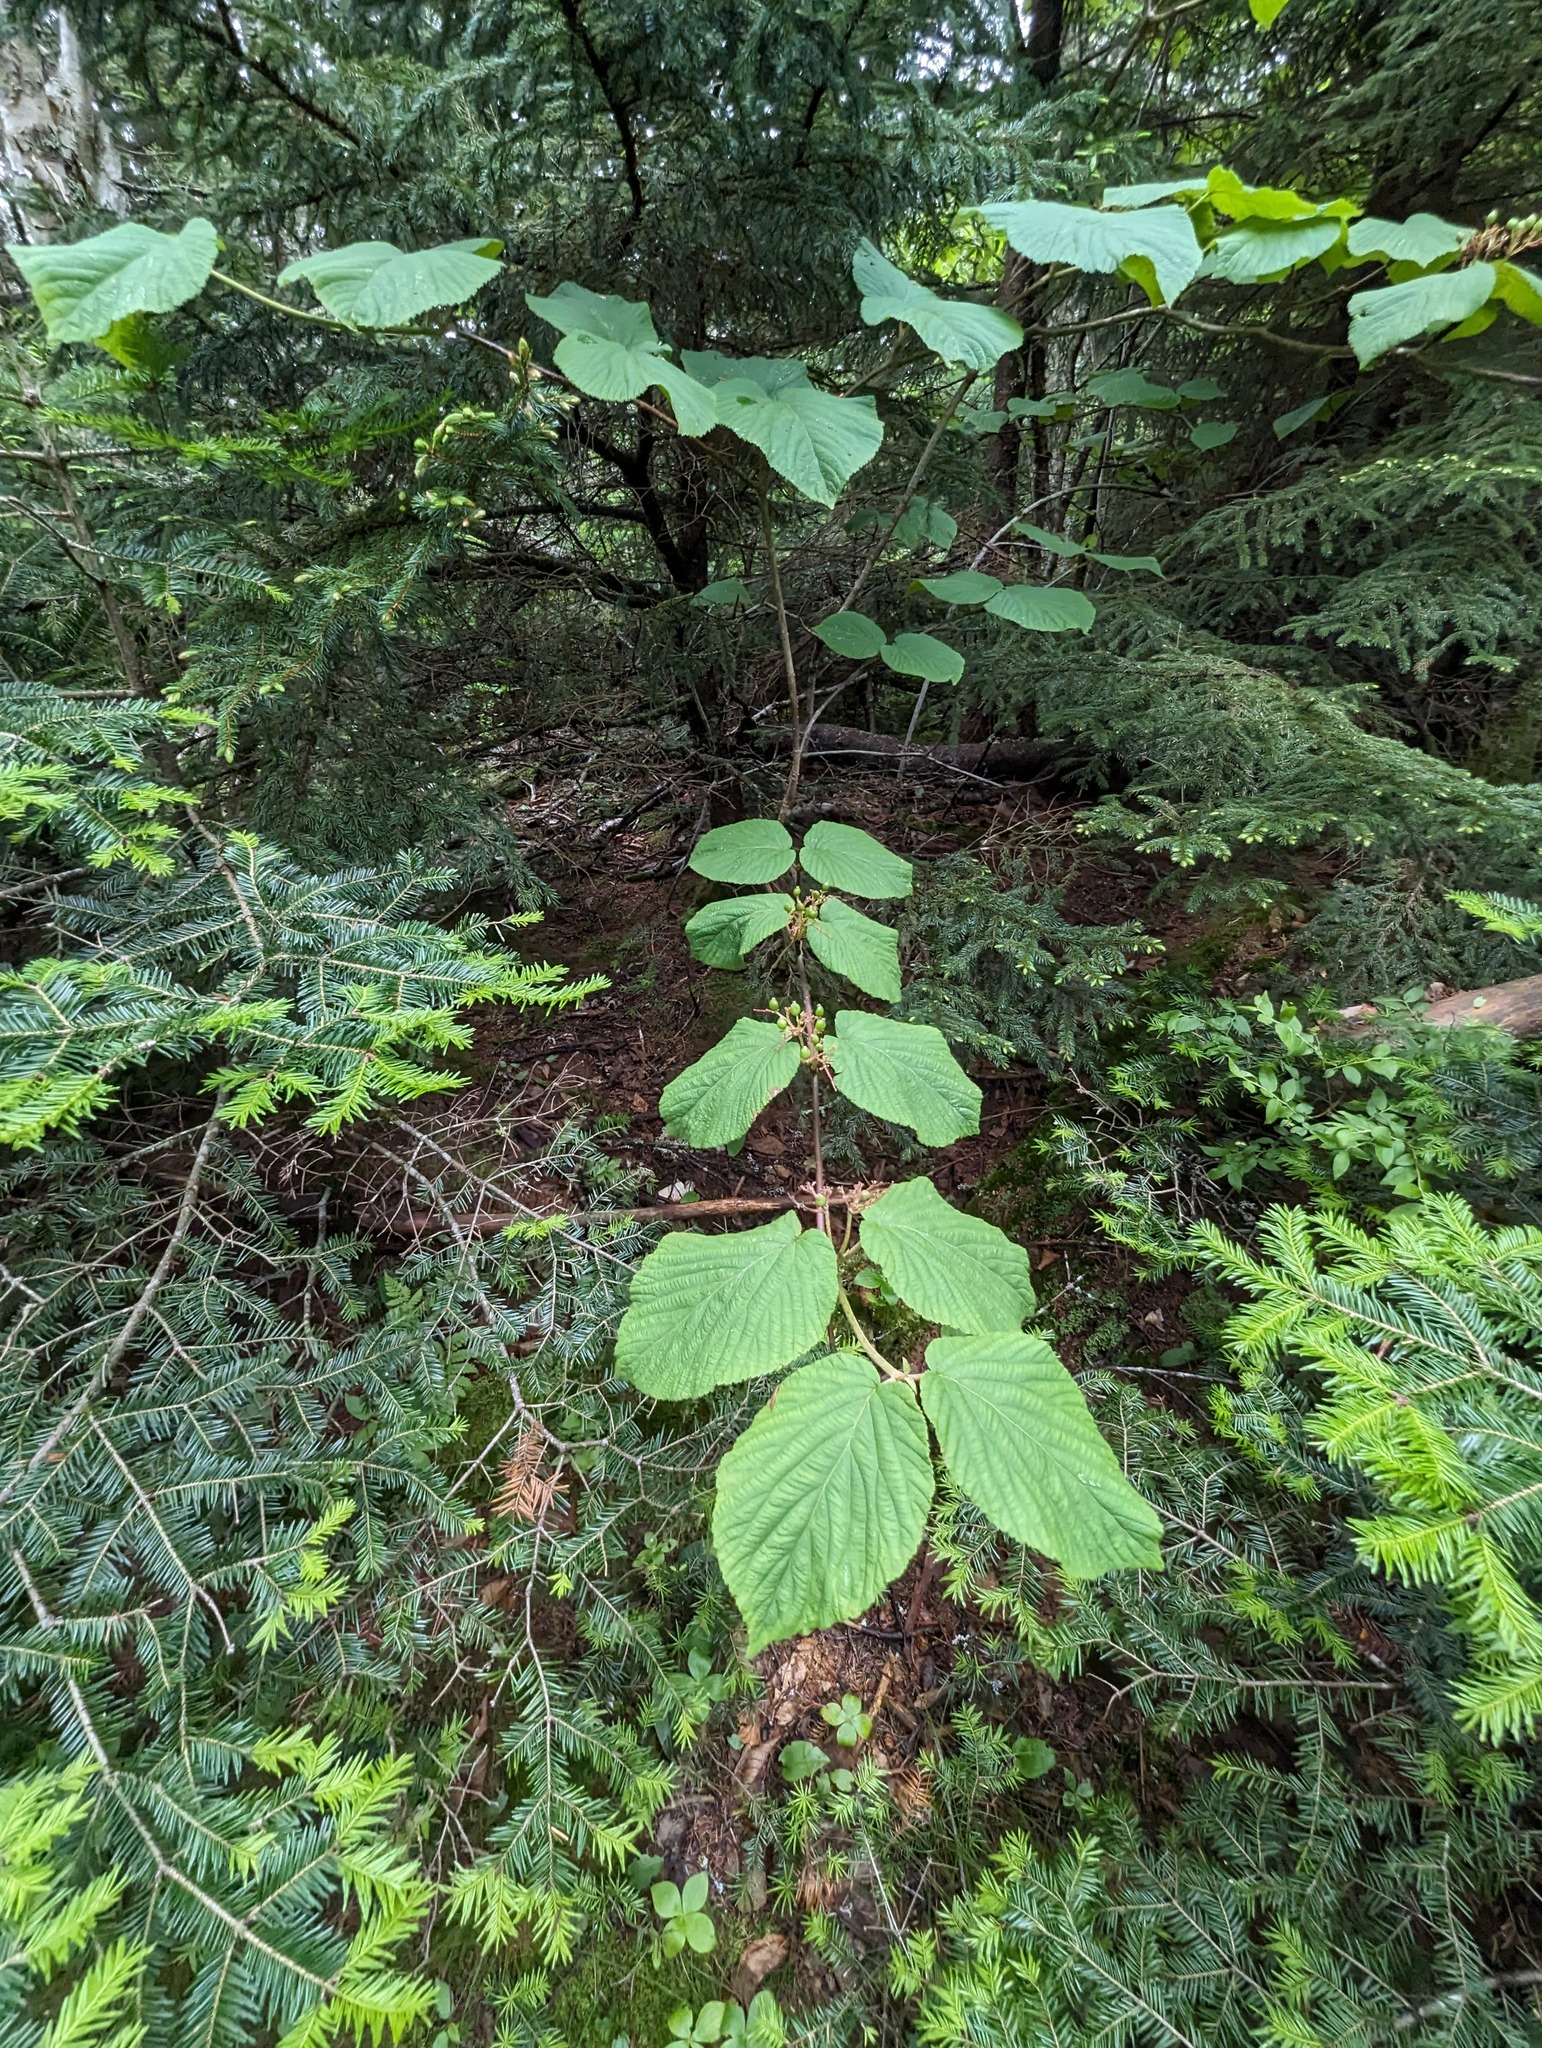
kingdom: Plantae
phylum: Tracheophyta
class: Magnoliopsida
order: Dipsacales
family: Viburnaceae
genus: Viburnum
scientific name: Viburnum lantanoides
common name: Hobblebush
